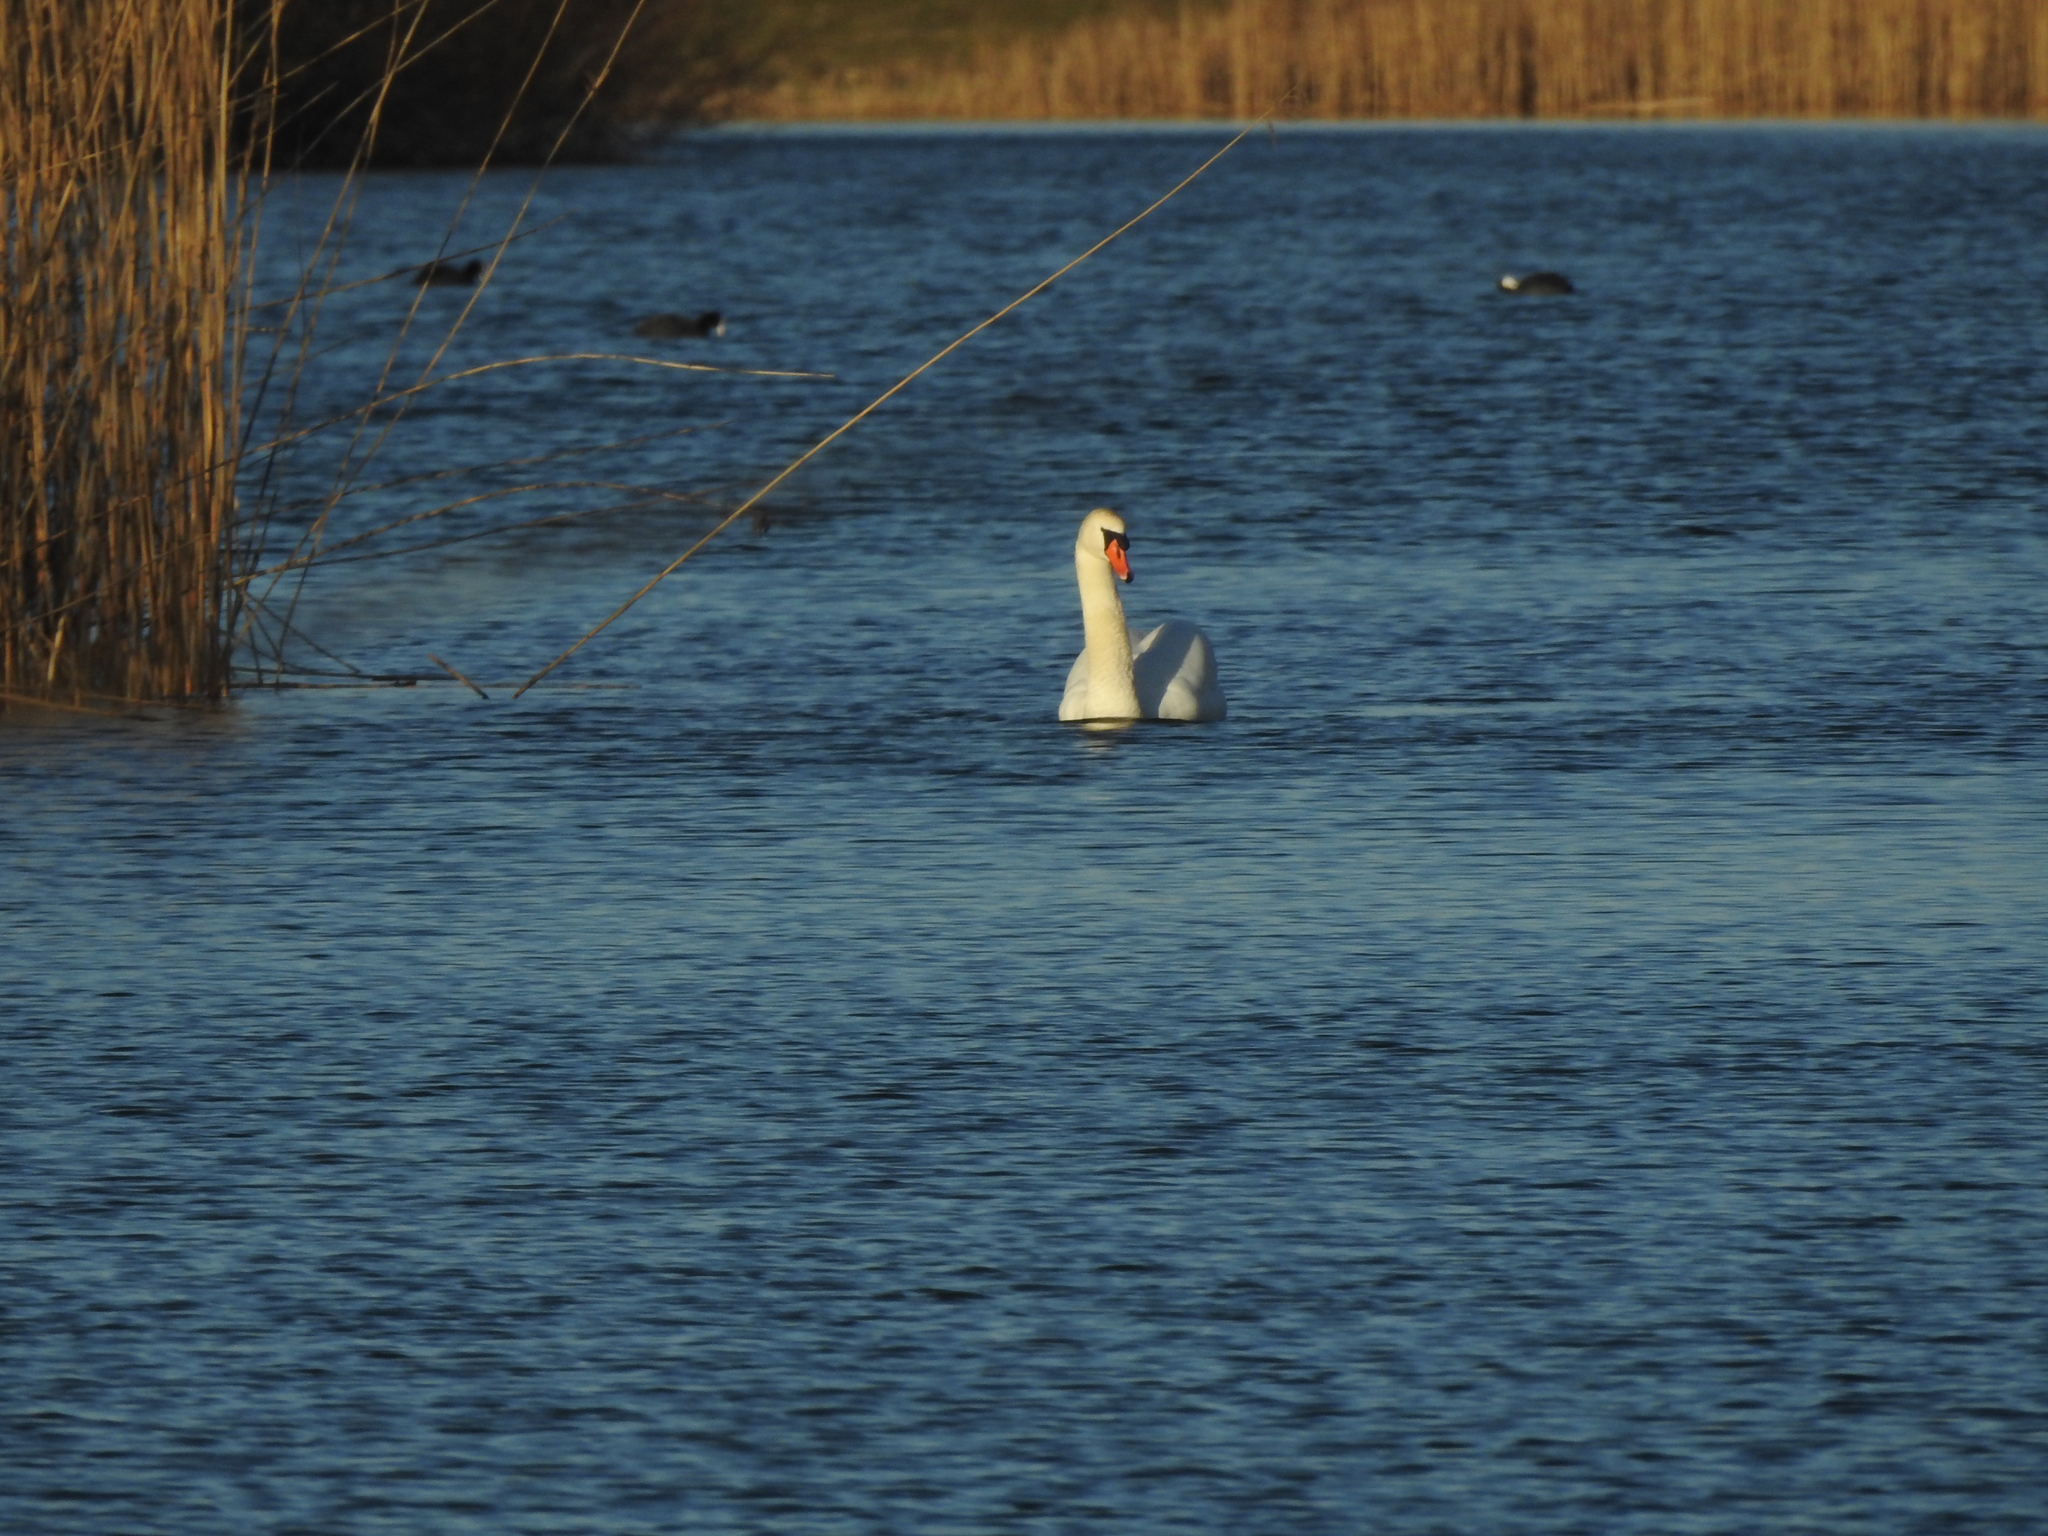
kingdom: Animalia
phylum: Chordata
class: Aves
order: Anseriformes
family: Anatidae
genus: Cygnus
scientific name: Cygnus olor
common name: Mute swan
